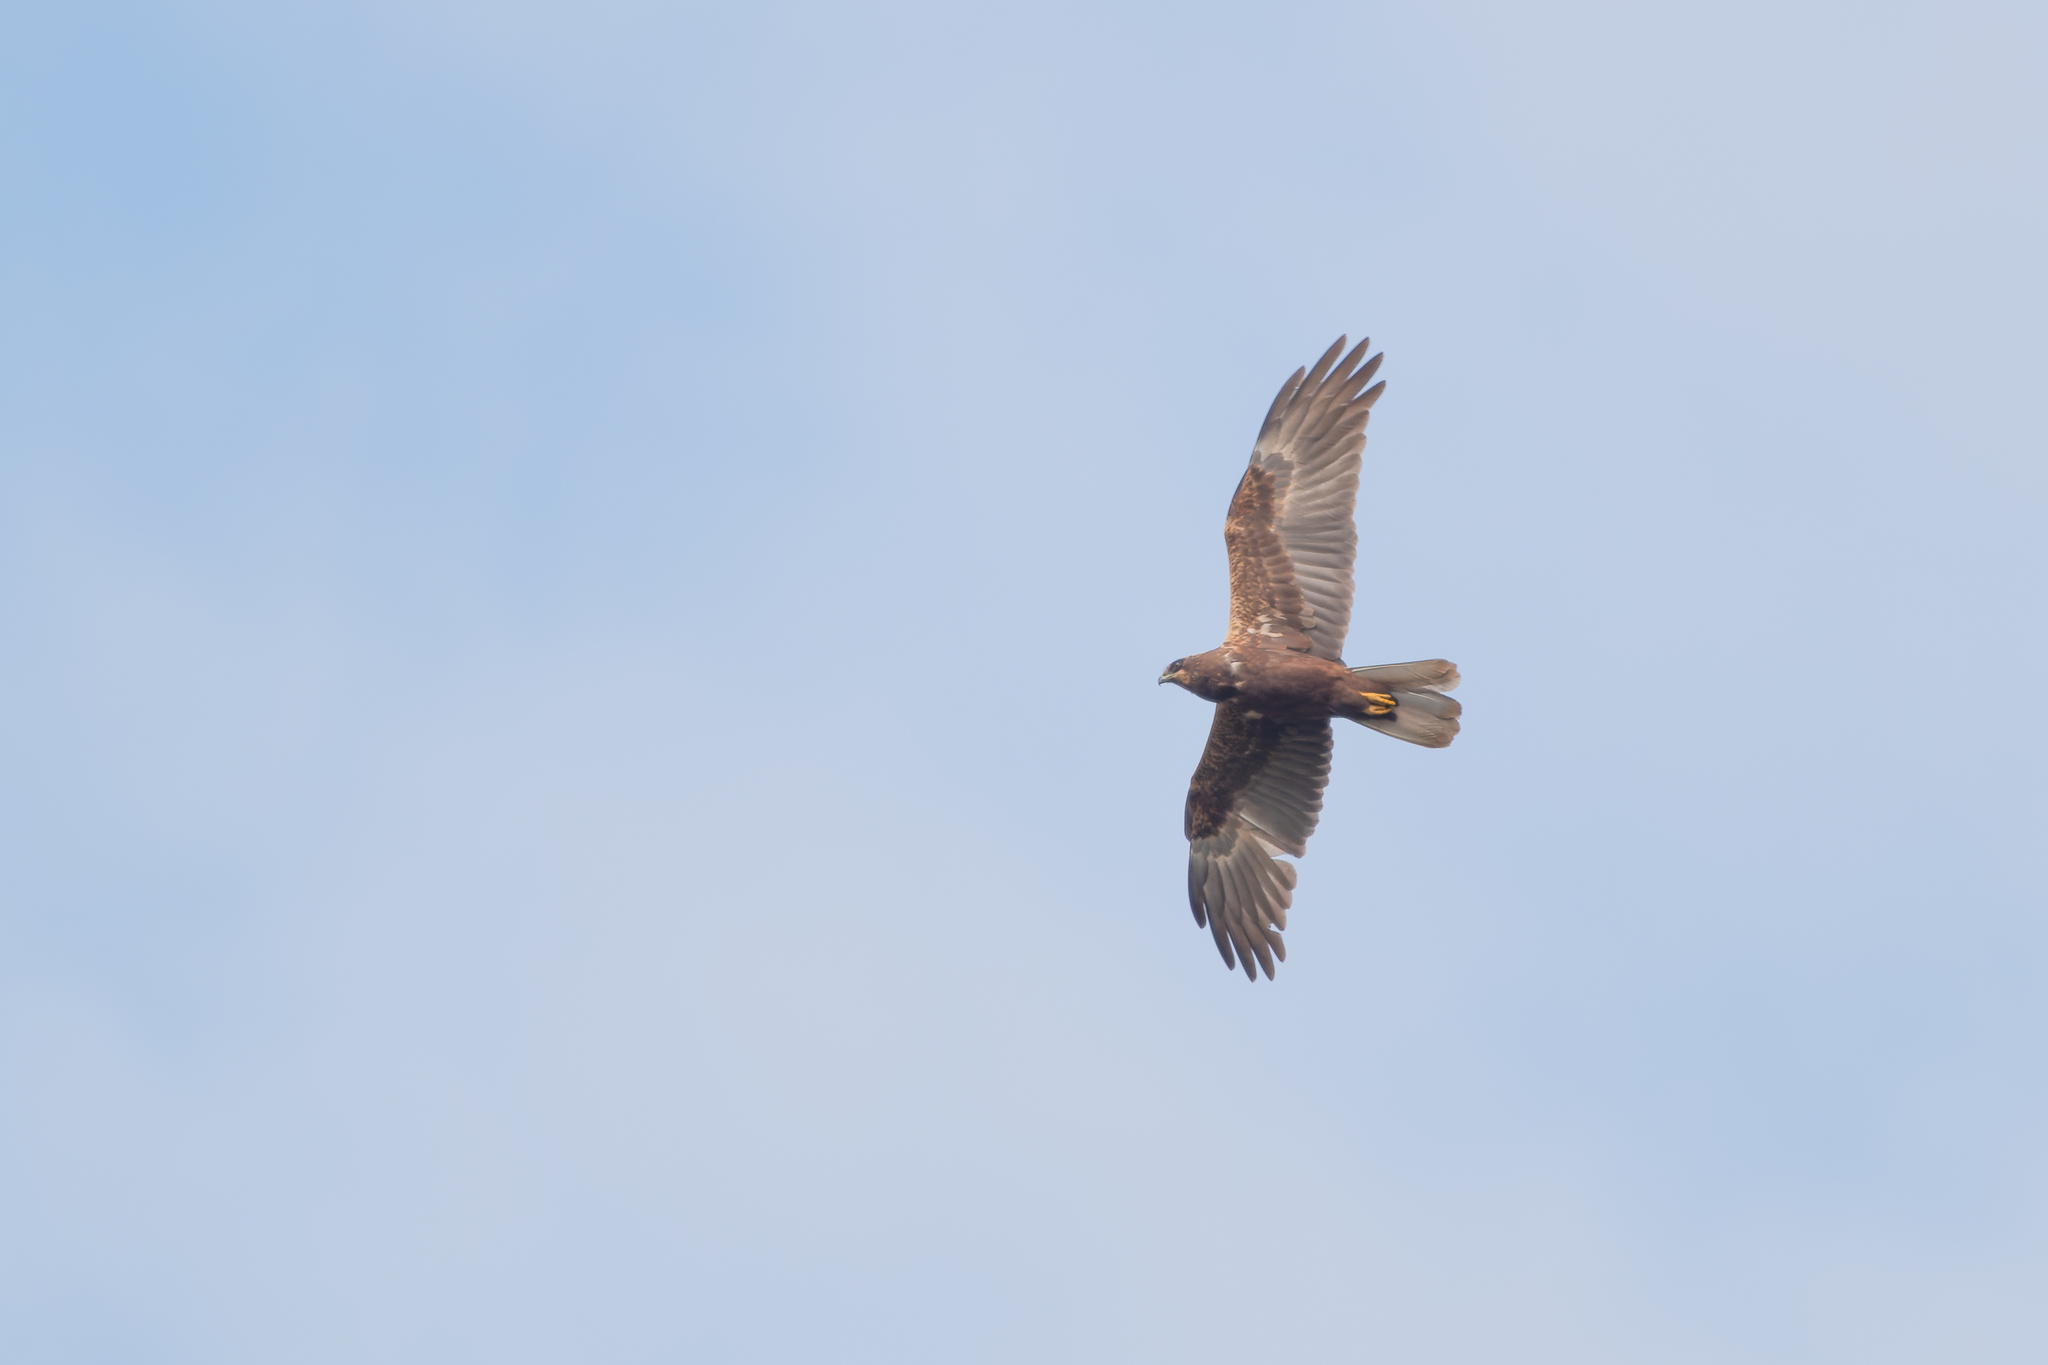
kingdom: Animalia
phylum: Chordata
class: Aves
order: Accipitriformes
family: Accipitridae
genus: Circus
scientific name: Circus aeruginosus
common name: Western marsh harrier
